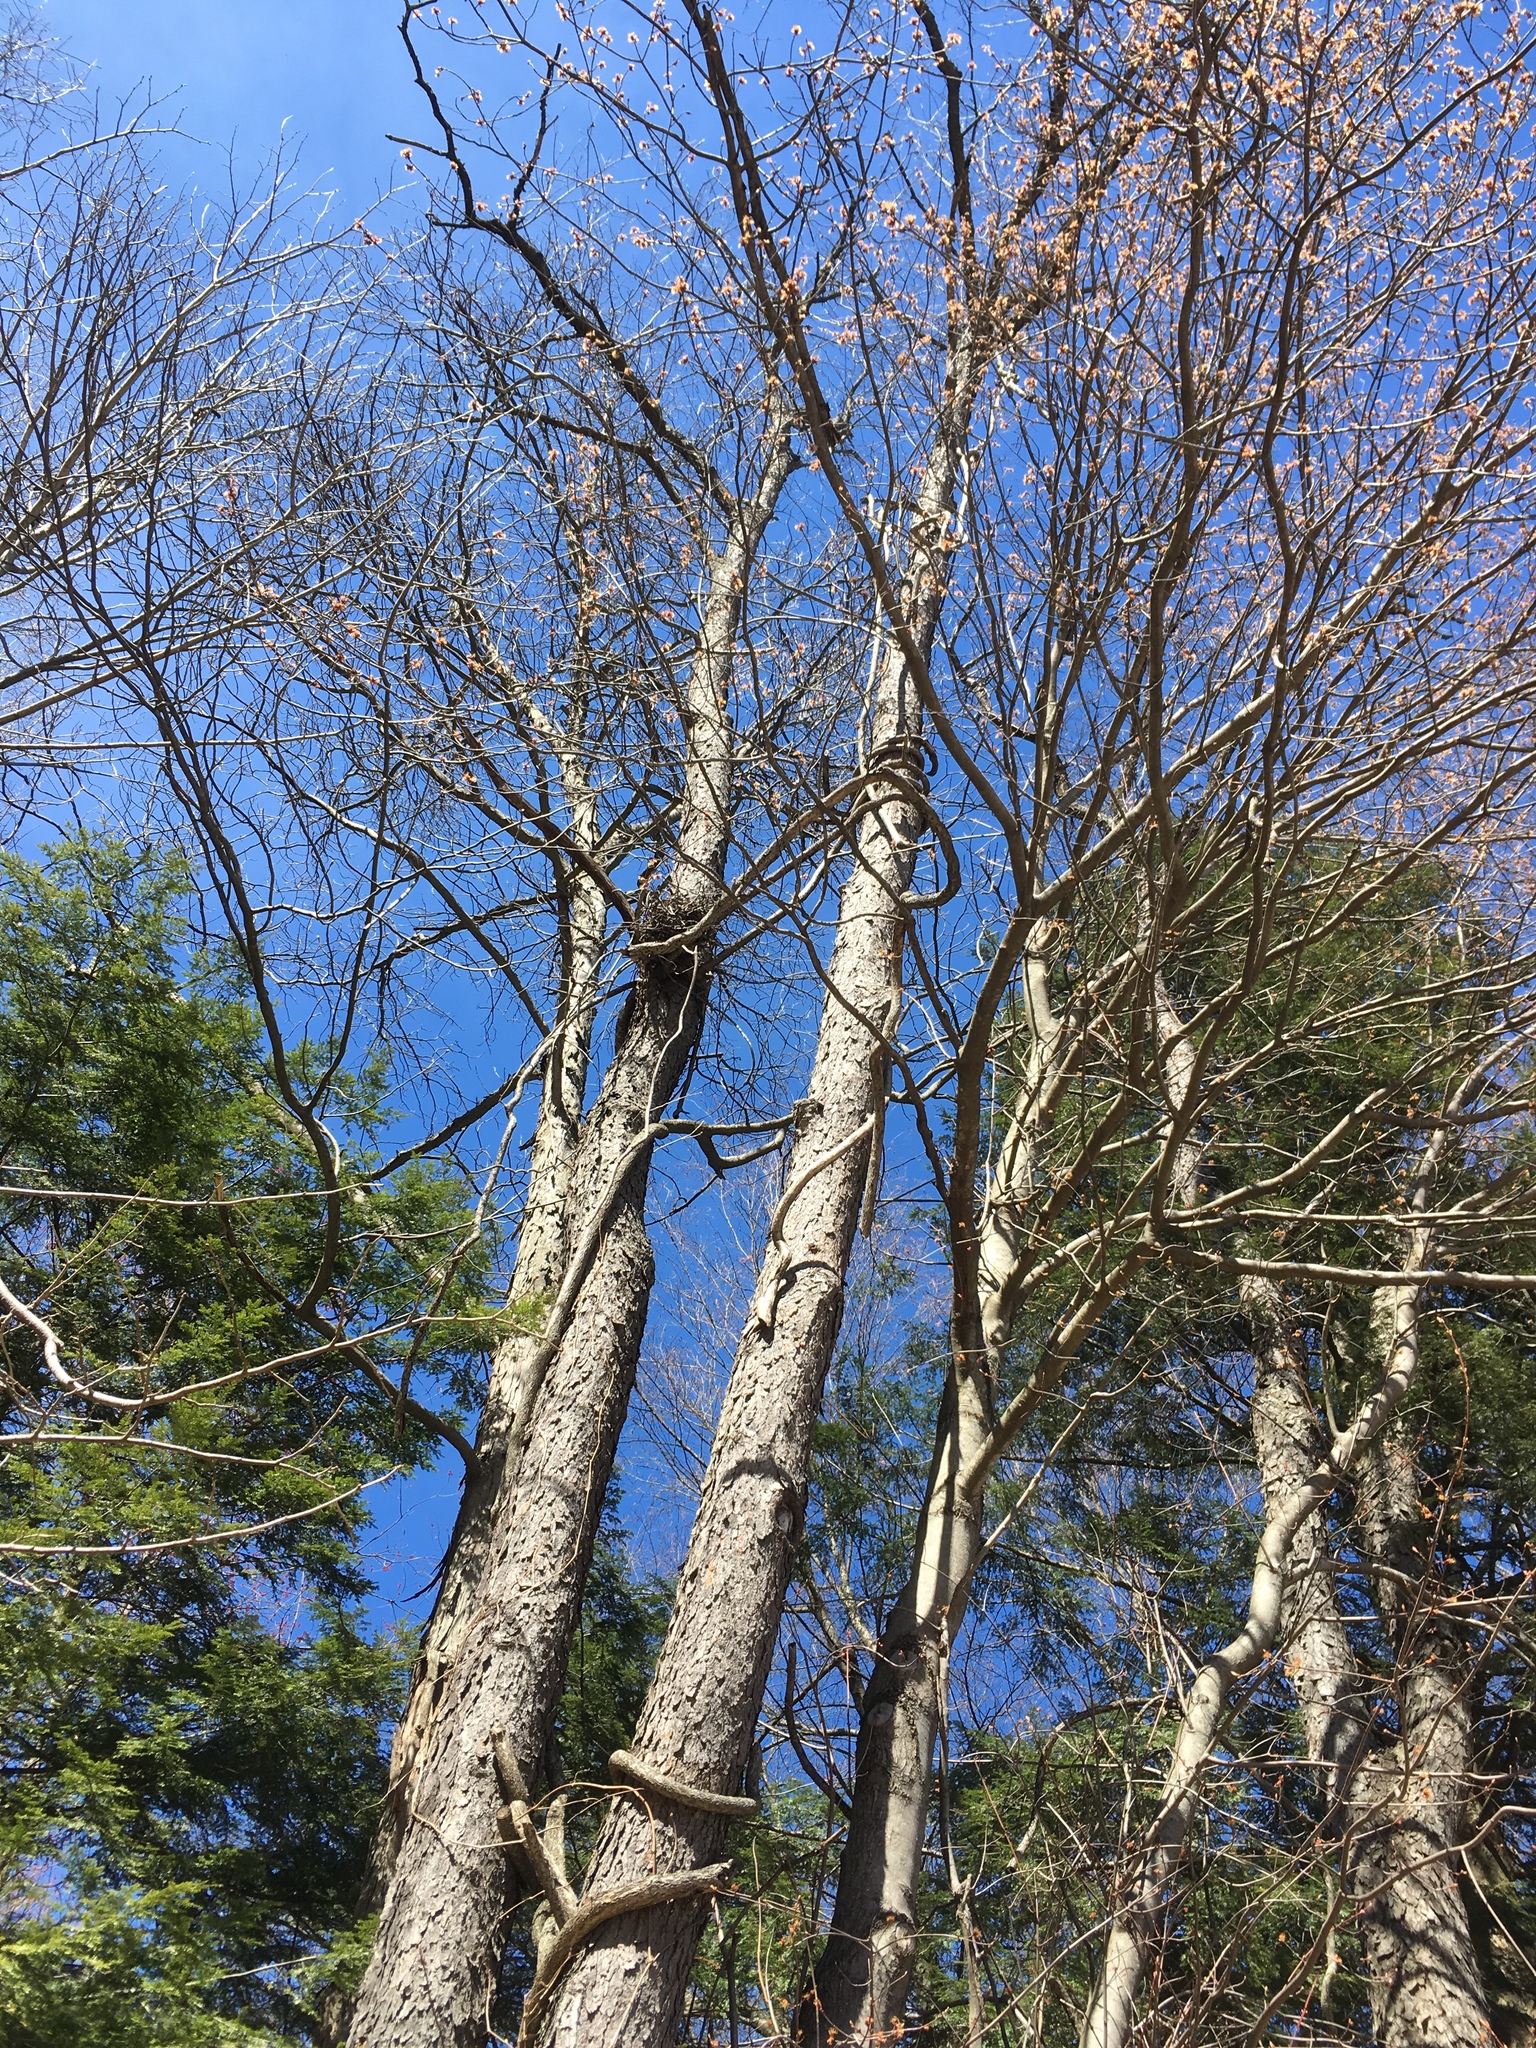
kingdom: Plantae
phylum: Tracheophyta
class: Magnoliopsida
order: Rosales
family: Rosaceae
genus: Prunus
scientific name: Prunus serotina
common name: Black cherry
